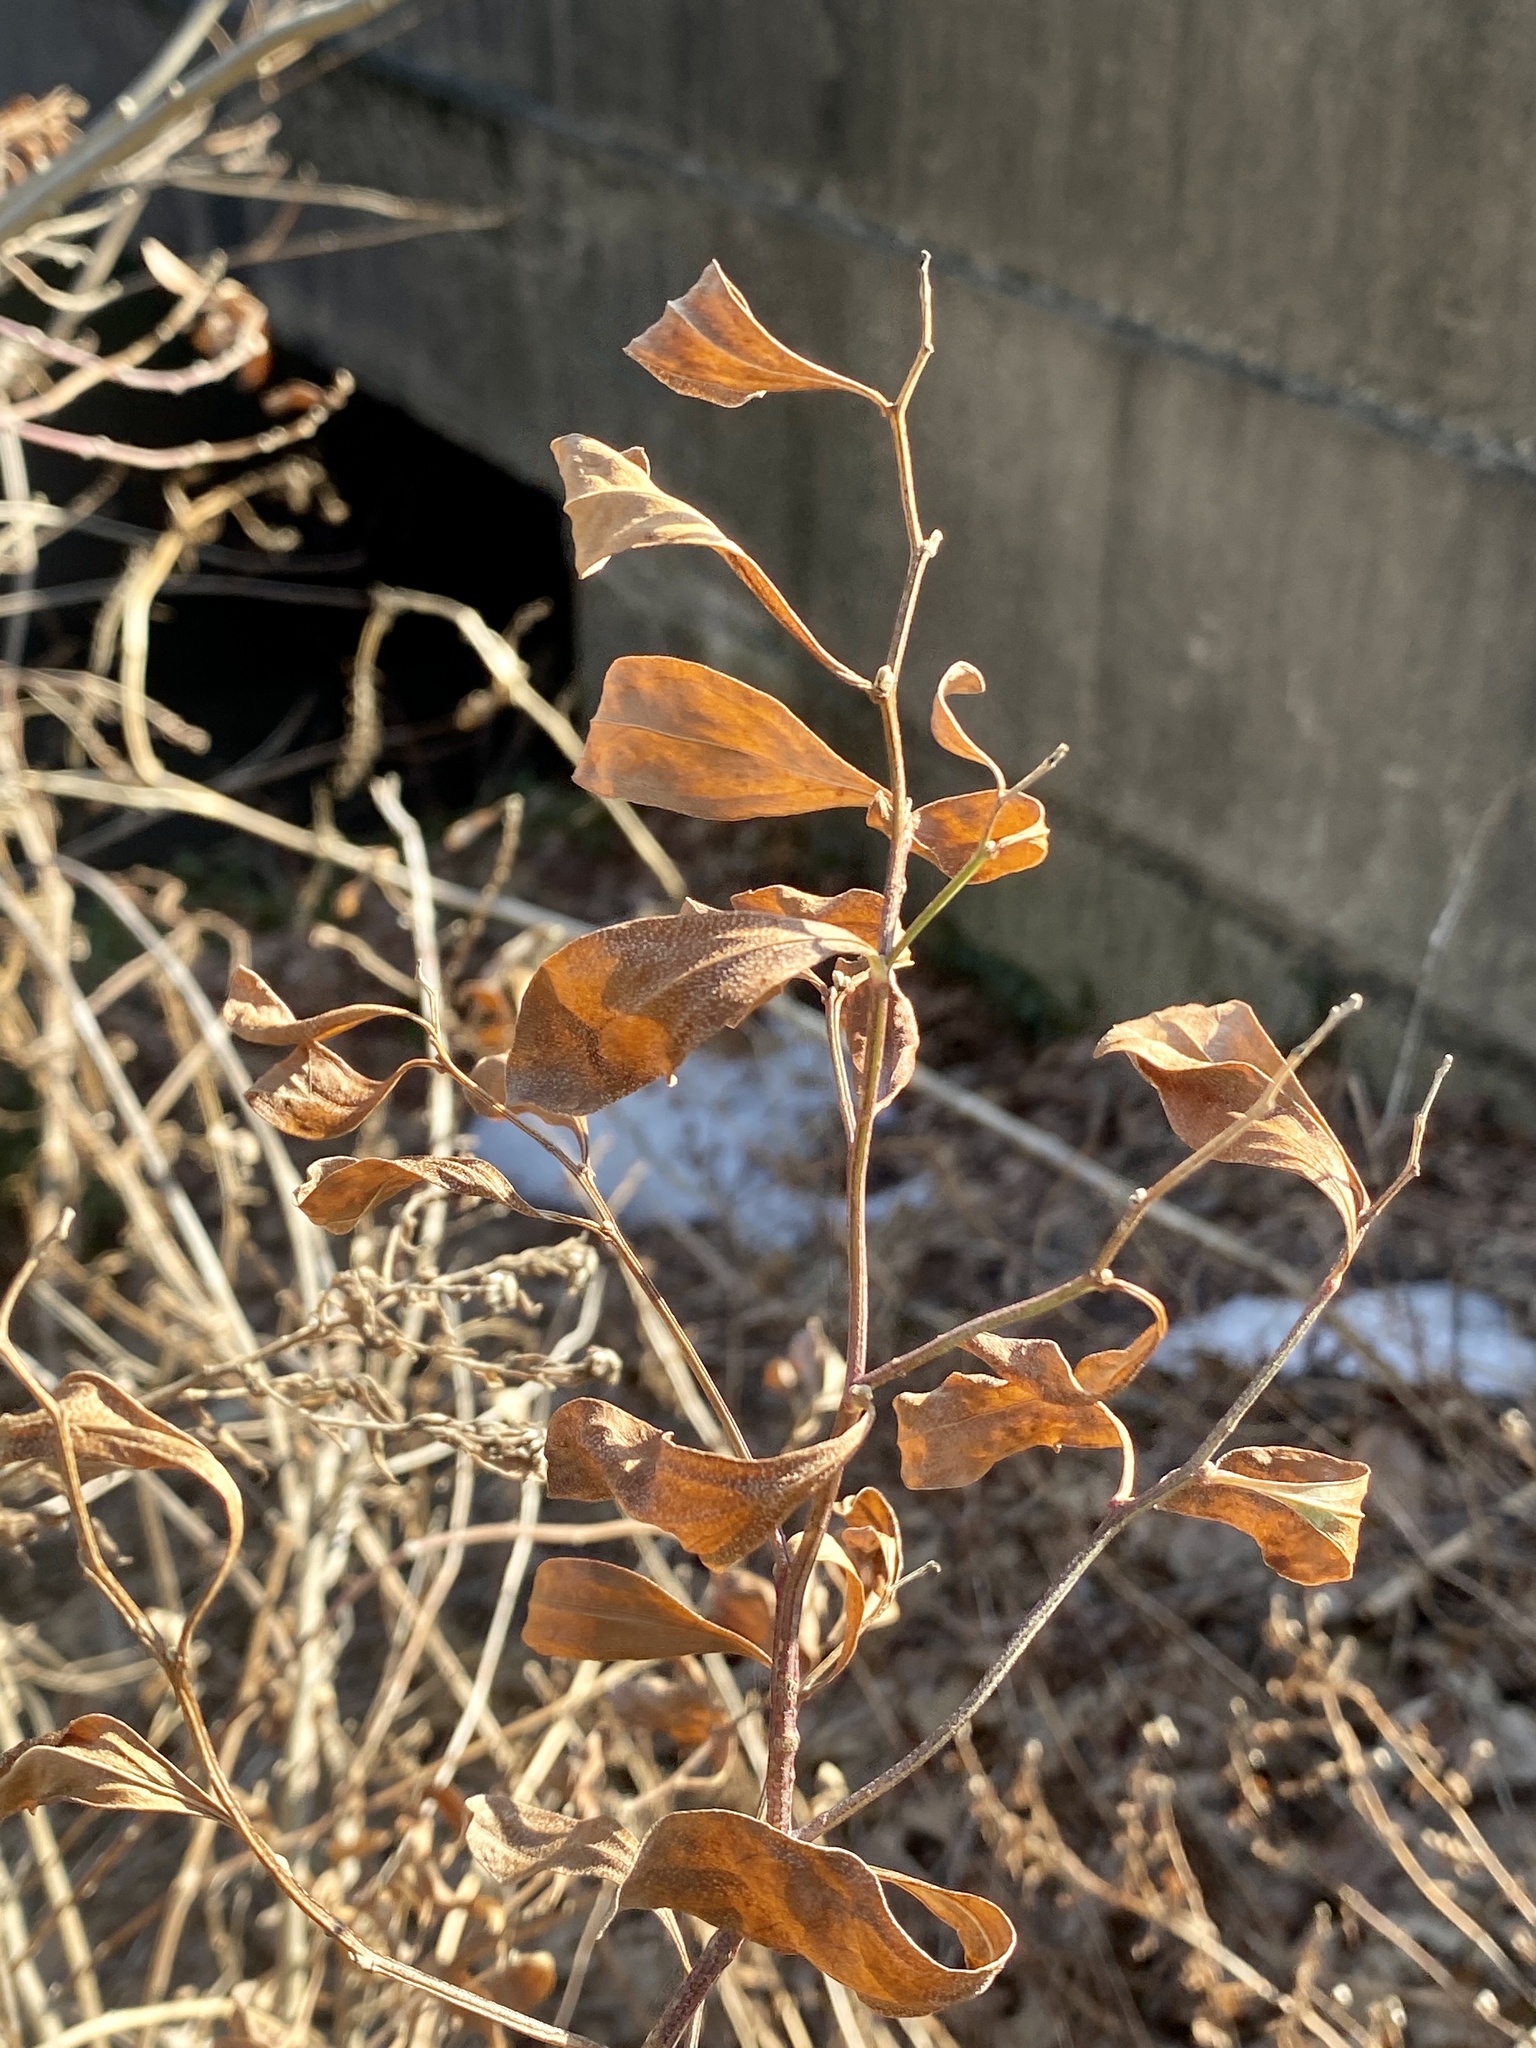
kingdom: Plantae
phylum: Tracheophyta
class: Magnoliopsida
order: Asterales
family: Asteraceae
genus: Baccharis
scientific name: Baccharis halimifolia
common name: Eastern baccharis
